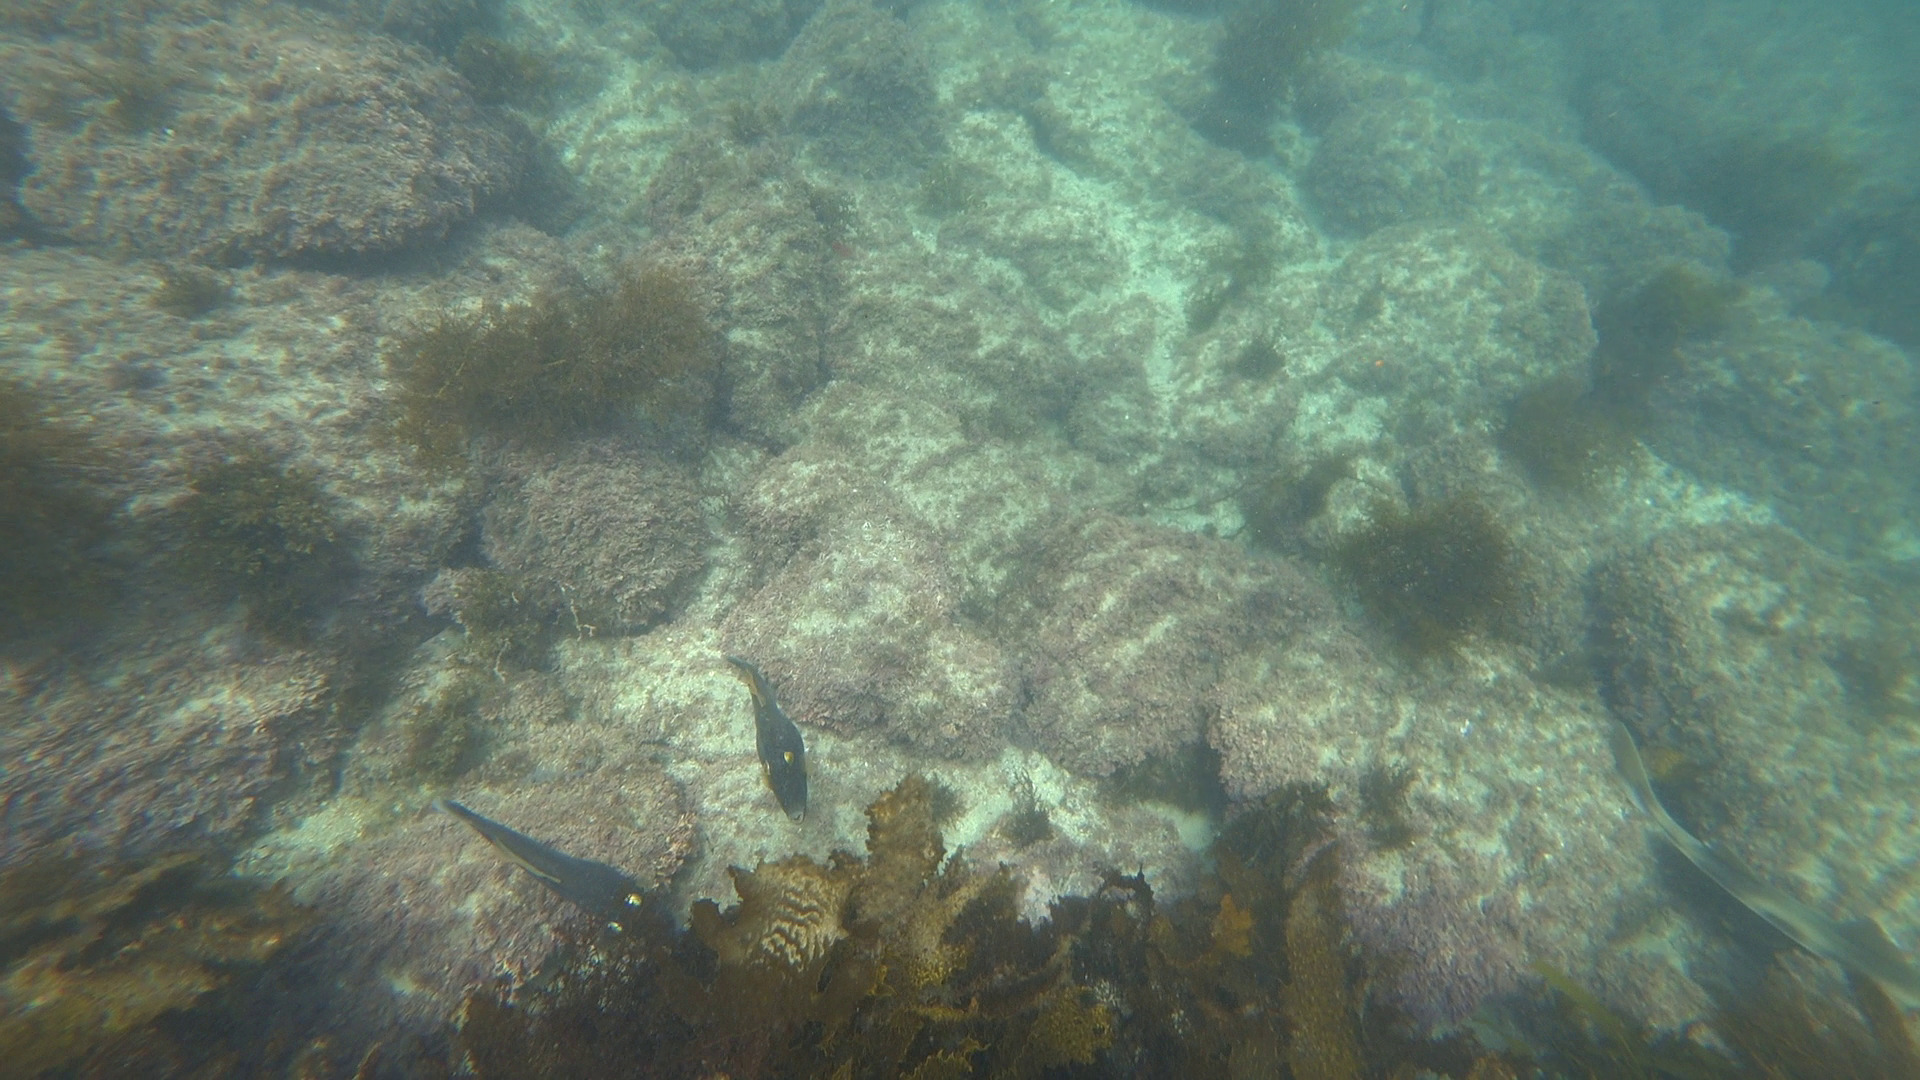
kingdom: Animalia
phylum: Chordata
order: Tetraodontiformes
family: Monacanthidae
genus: Eubalichthys
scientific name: Eubalichthys bucephalus
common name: Black reef leatherjacket
